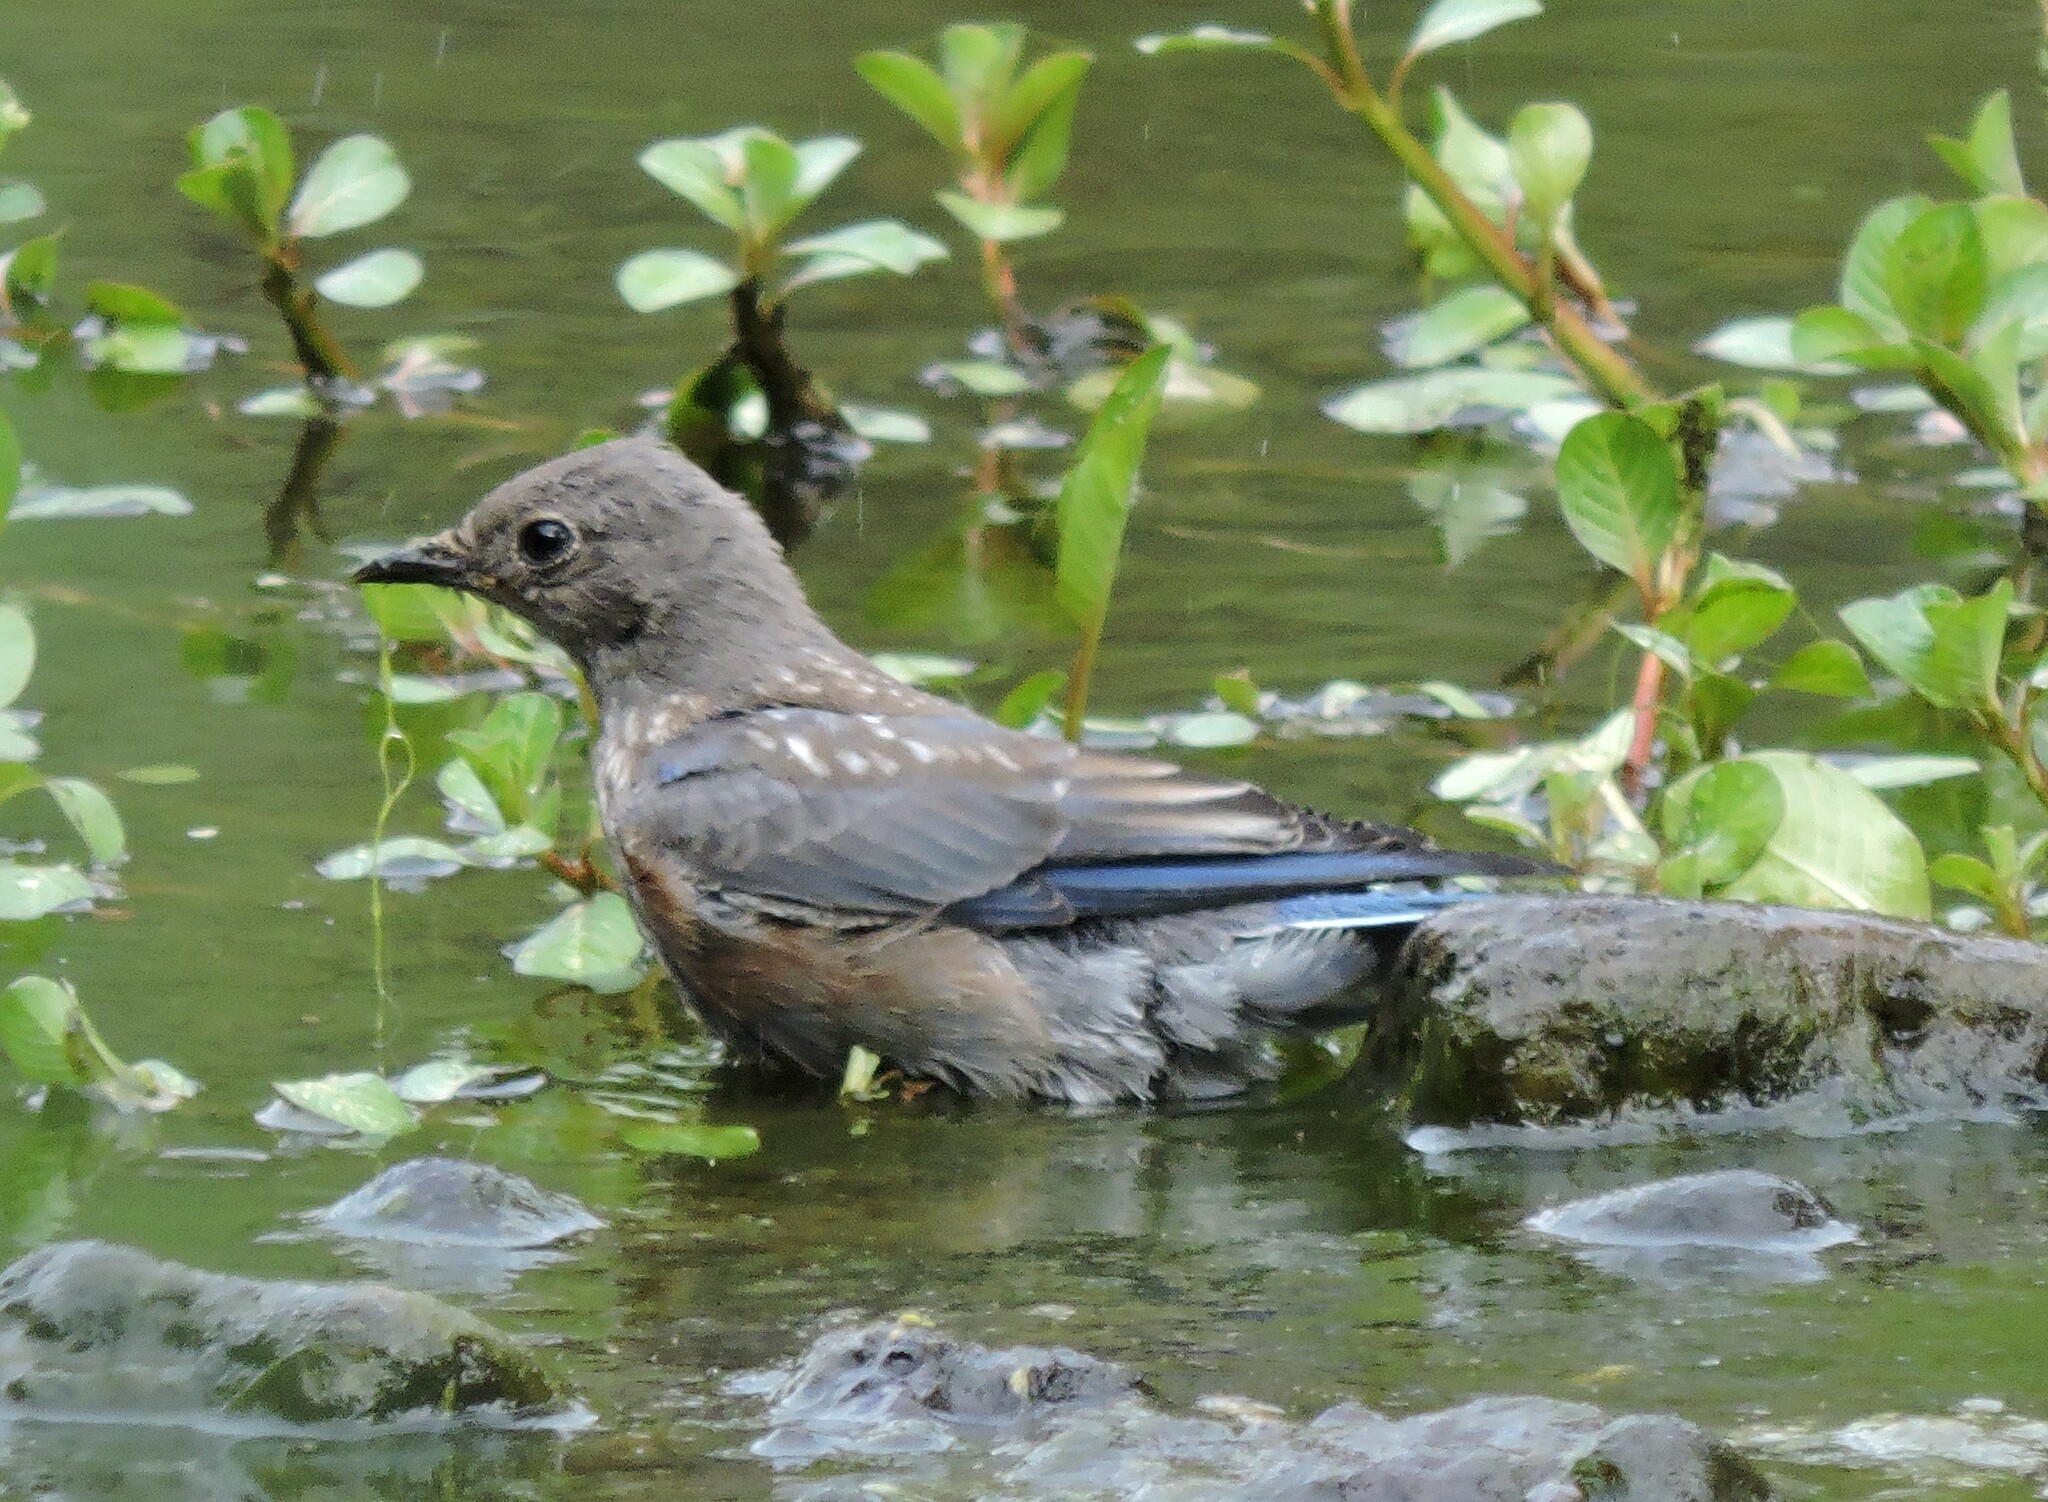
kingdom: Animalia
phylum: Chordata
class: Aves
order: Passeriformes
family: Turdidae
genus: Sialia
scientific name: Sialia mexicana
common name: Western bluebird
